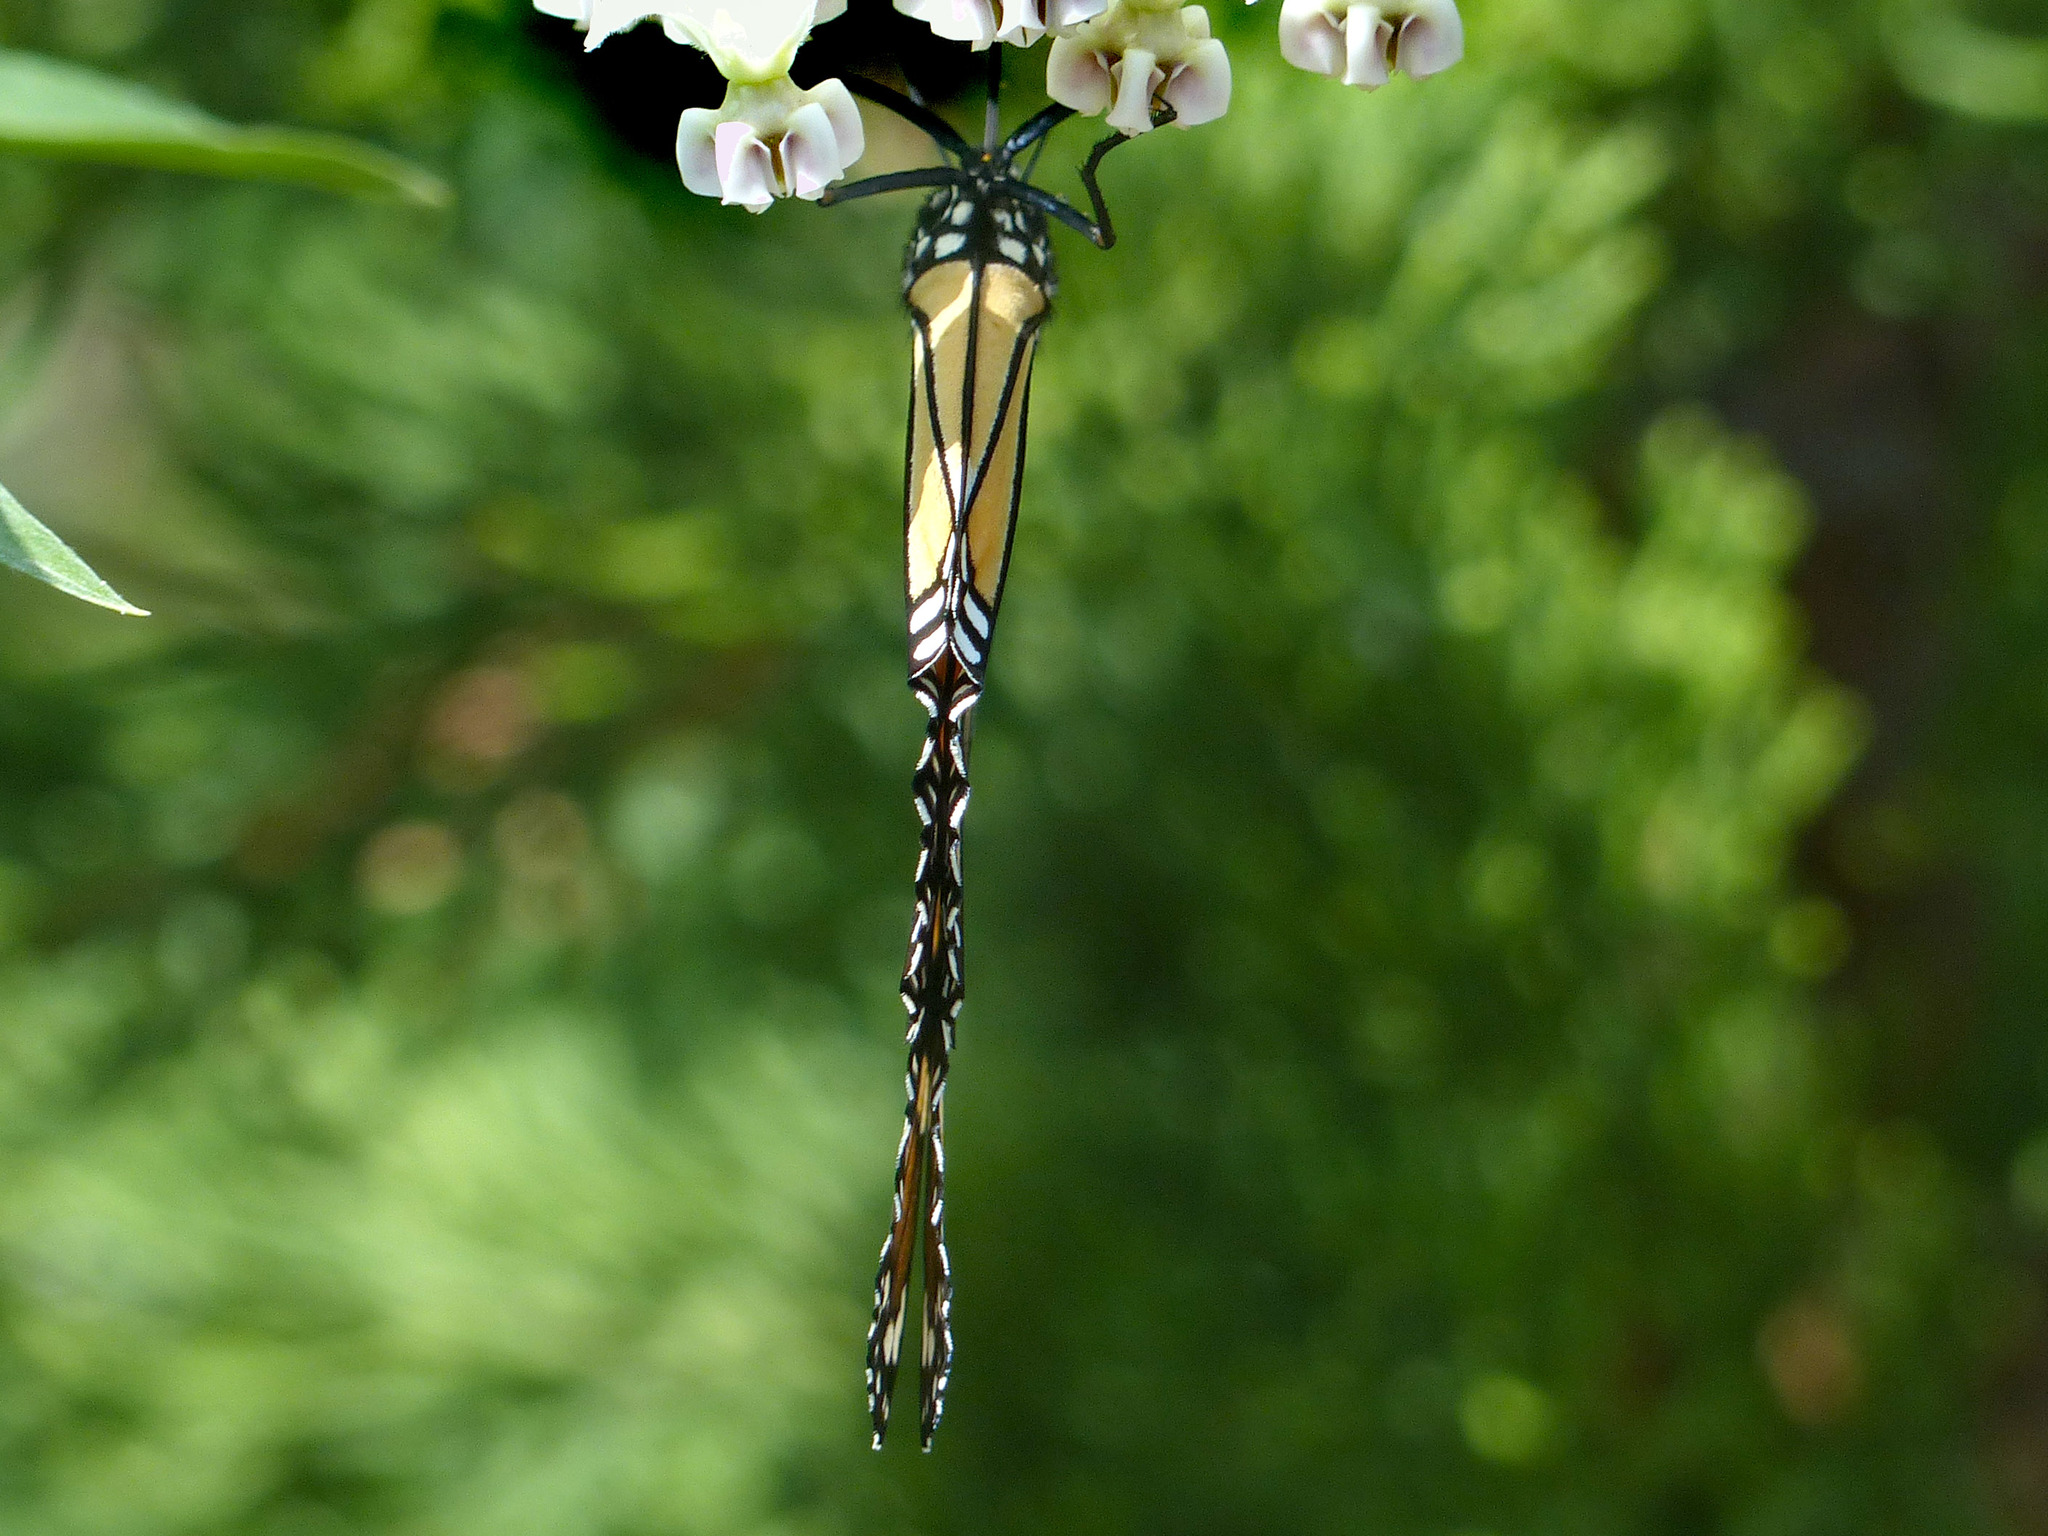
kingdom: Animalia
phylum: Arthropoda
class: Insecta
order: Lepidoptera
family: Nymphalidae
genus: Danaus
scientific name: Danaus plexippus
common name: Monarch
